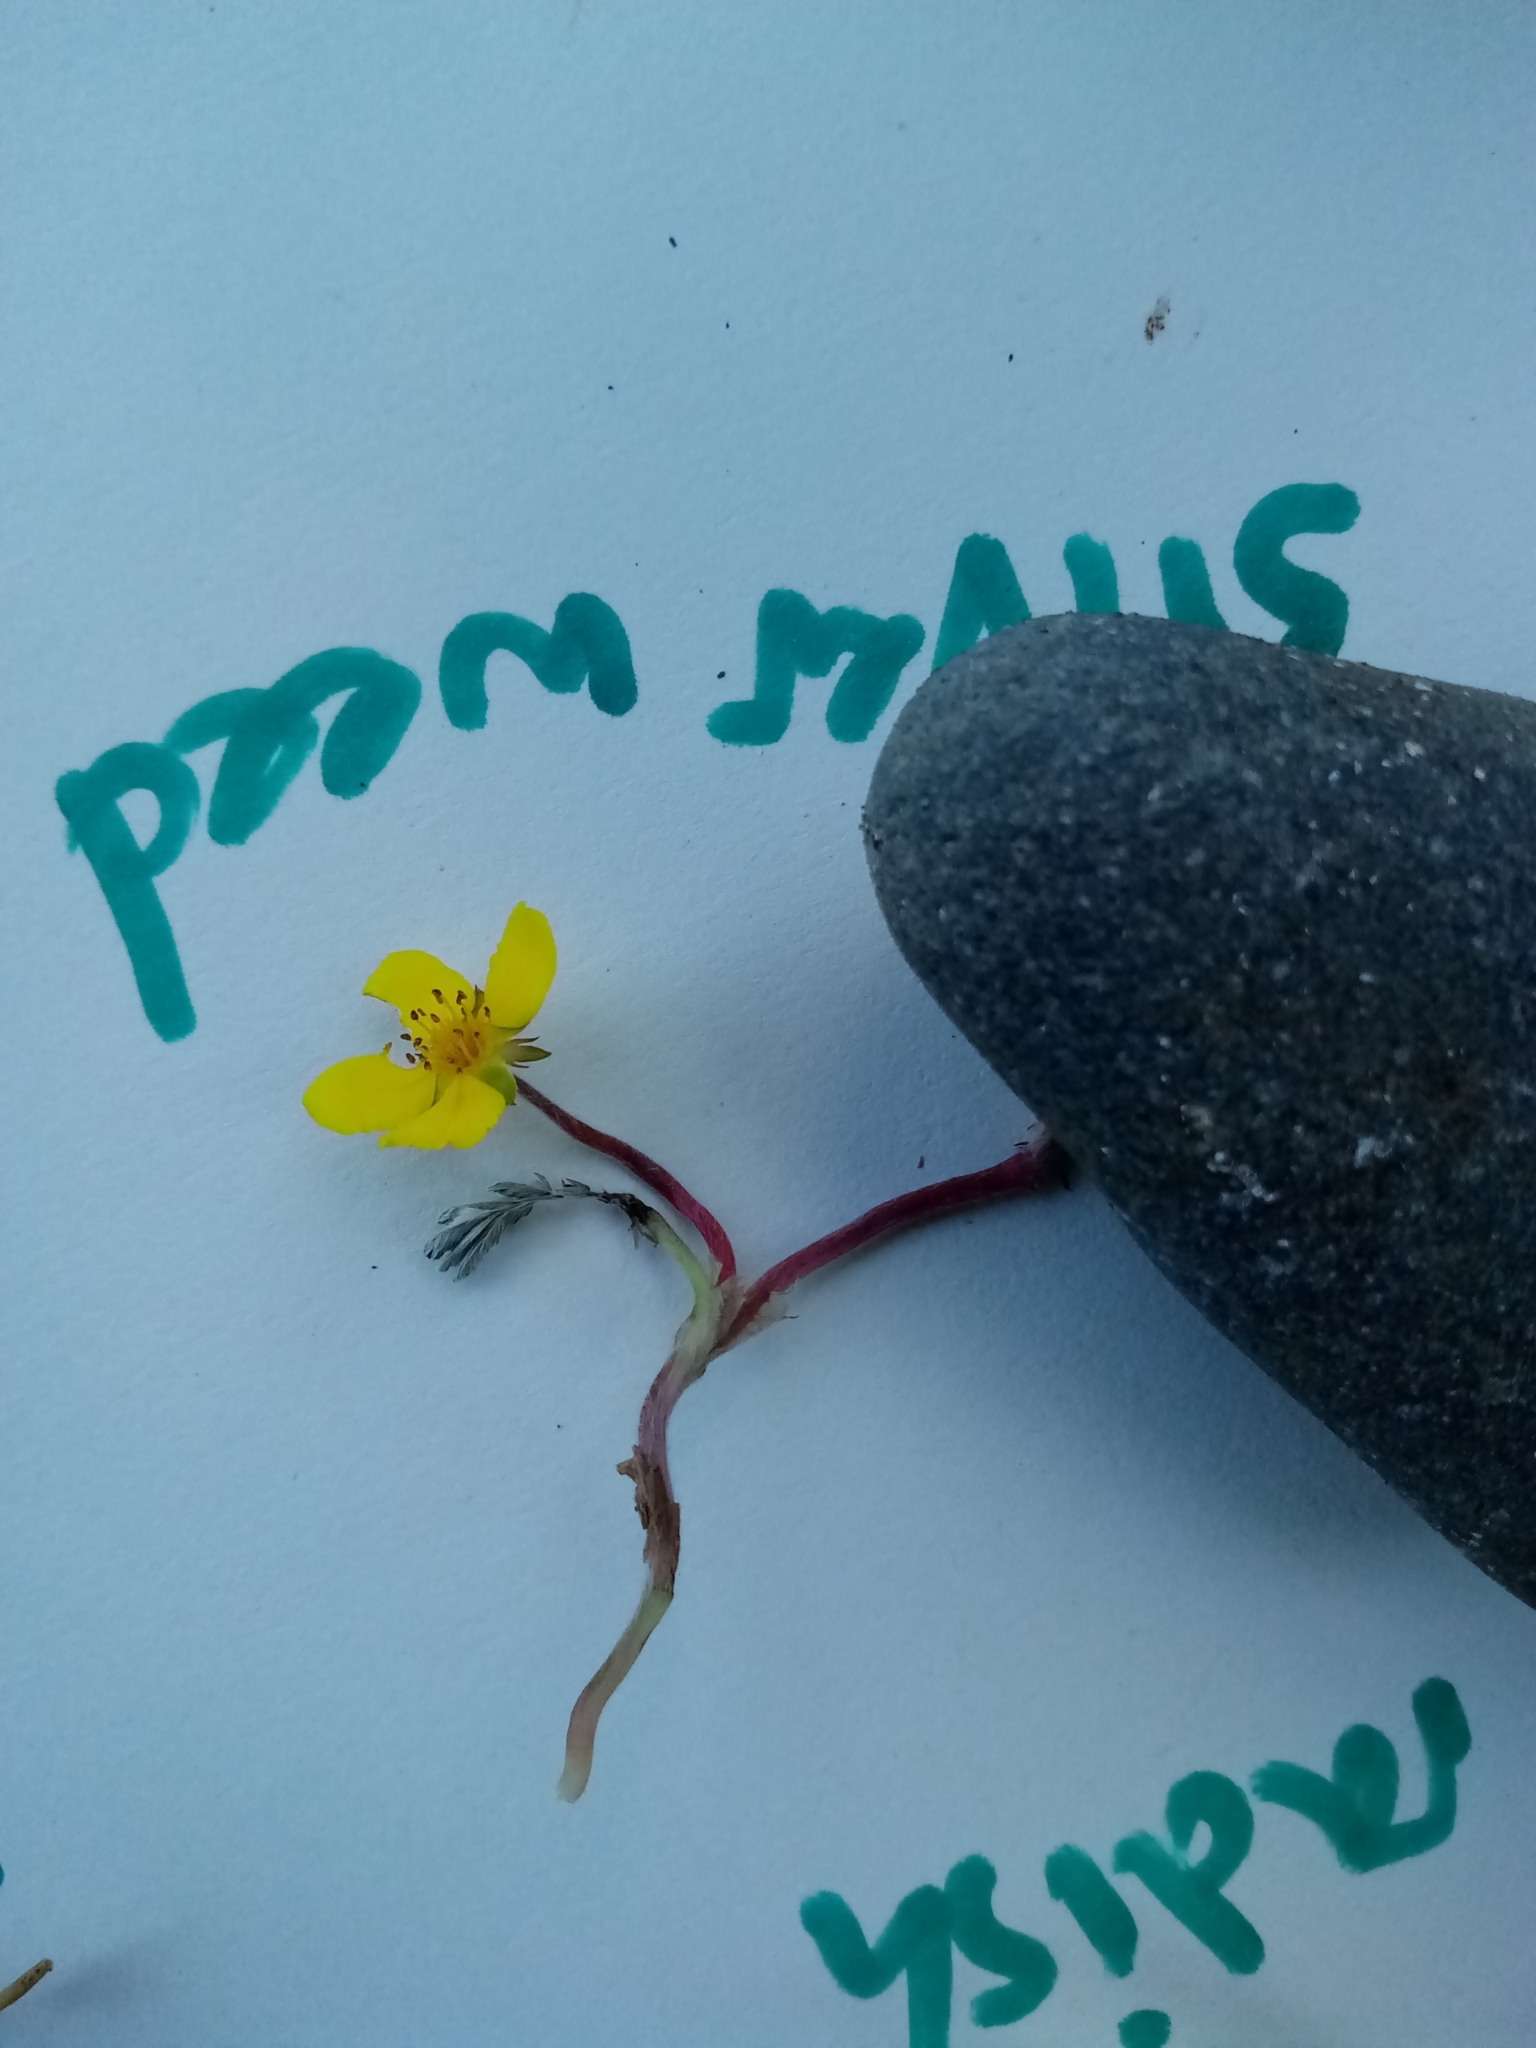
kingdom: Plantae
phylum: Tracheophyta
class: Magnoliopsida
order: Rosales
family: Rosaceae
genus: Argentina
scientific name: Argentina anserina
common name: Common silverweed
